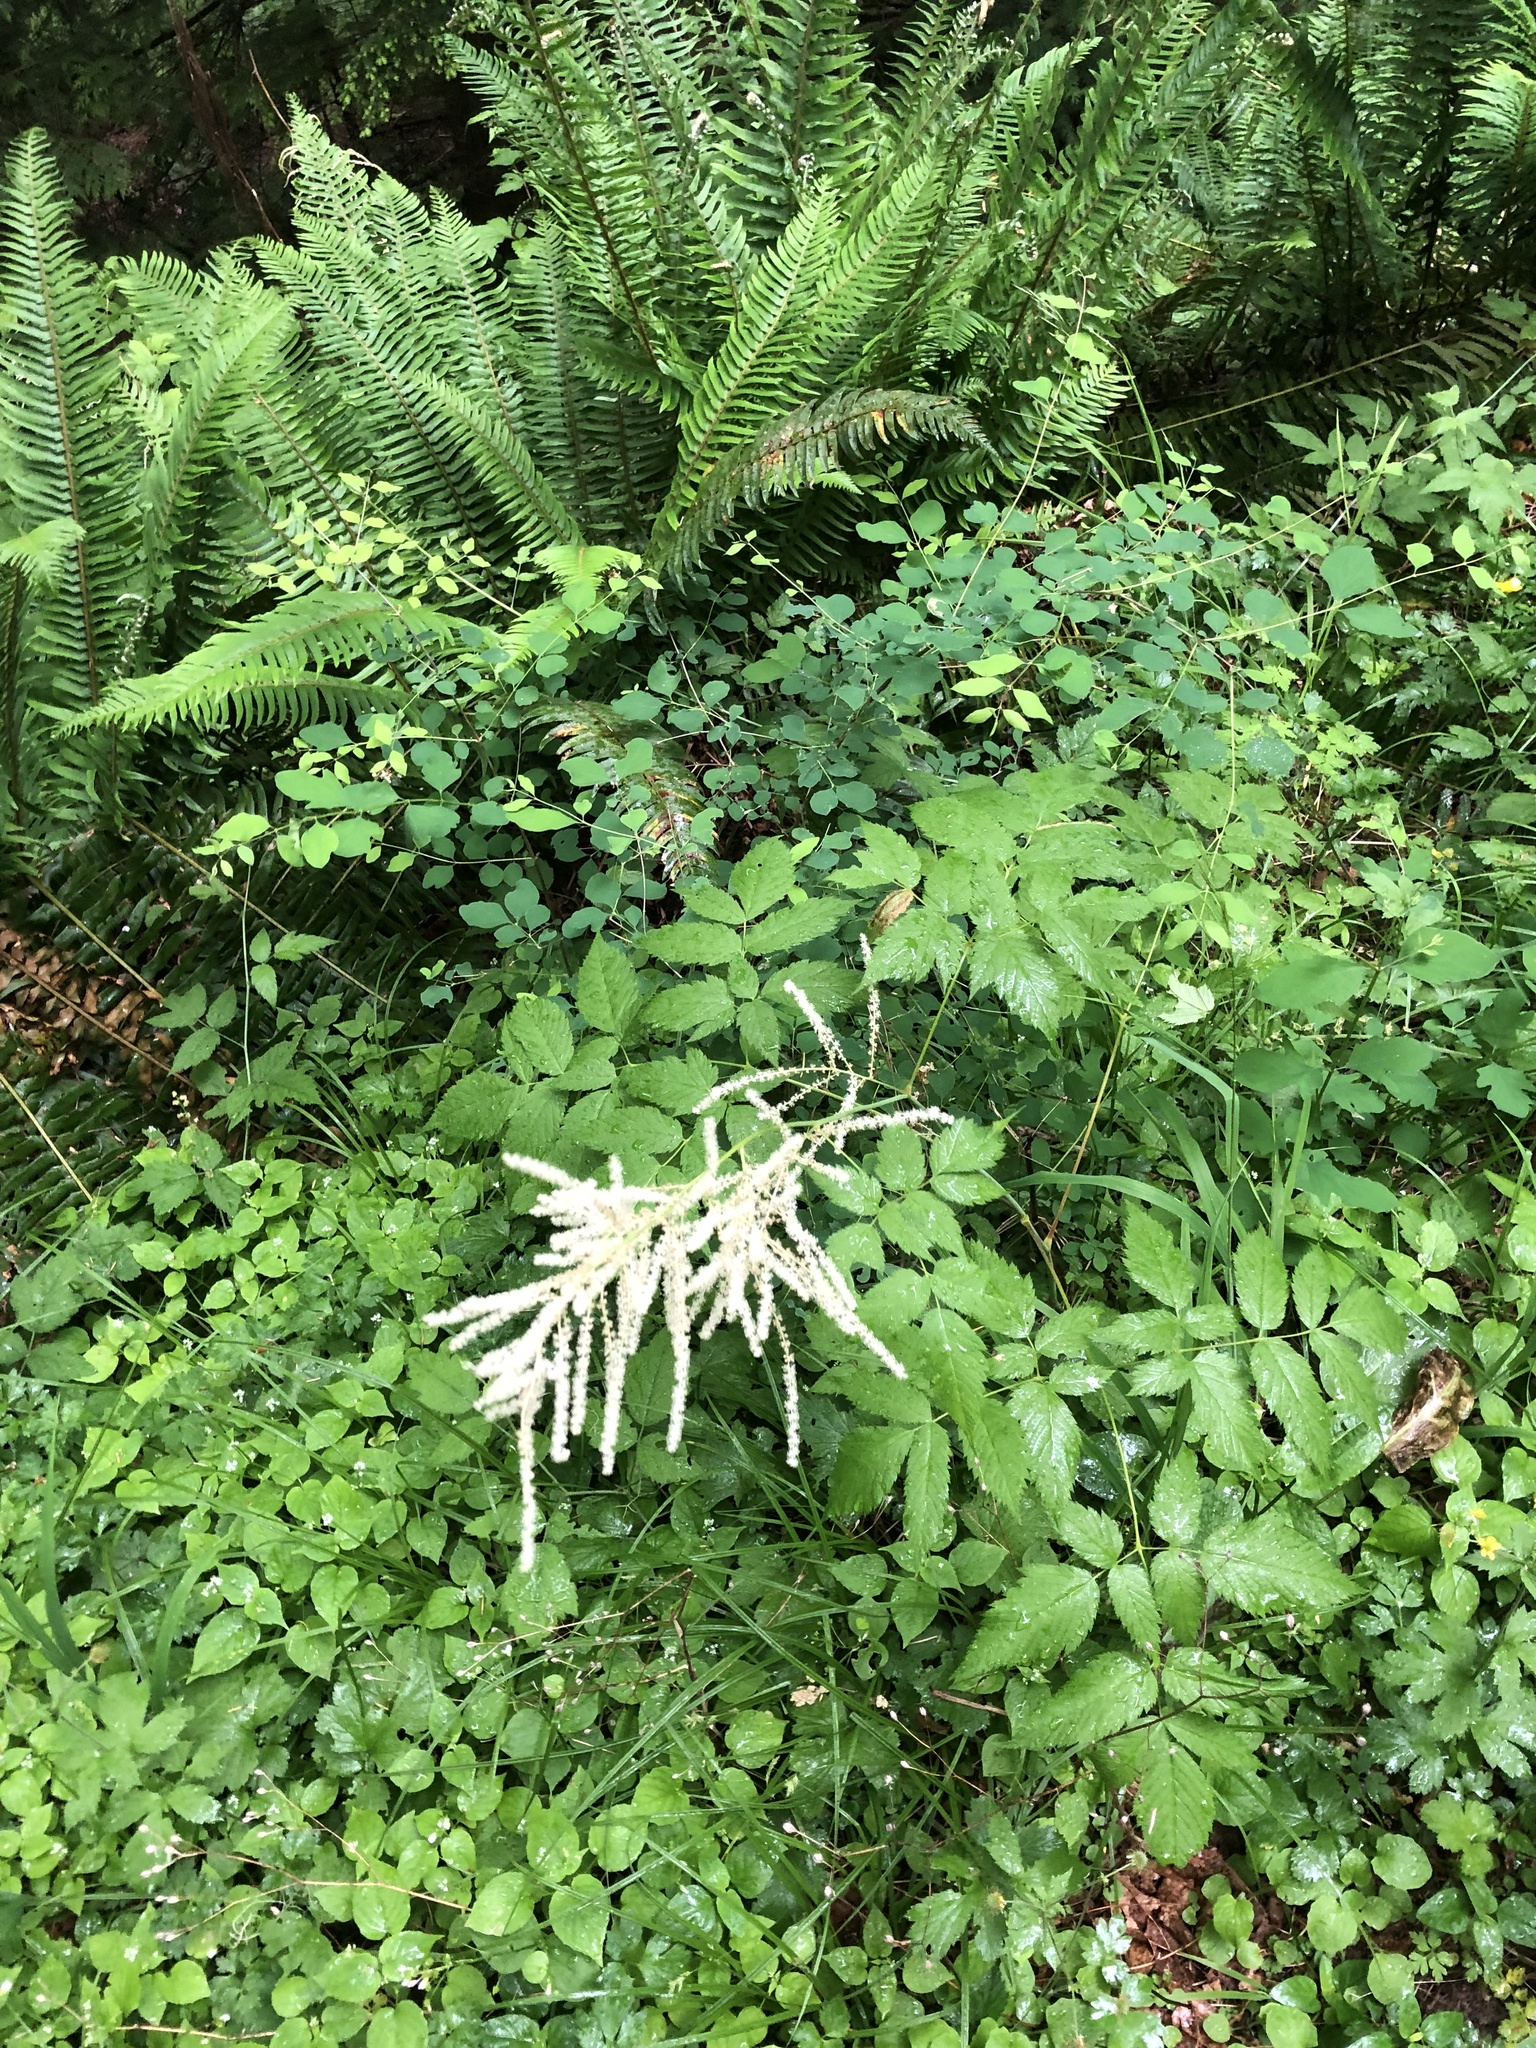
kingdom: Plantae
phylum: Tracheophyta
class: Magnoliopsida
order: Rosales
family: Rosaceae
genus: Aruncus
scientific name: Aruncus dioicus
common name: Buck's-beard
